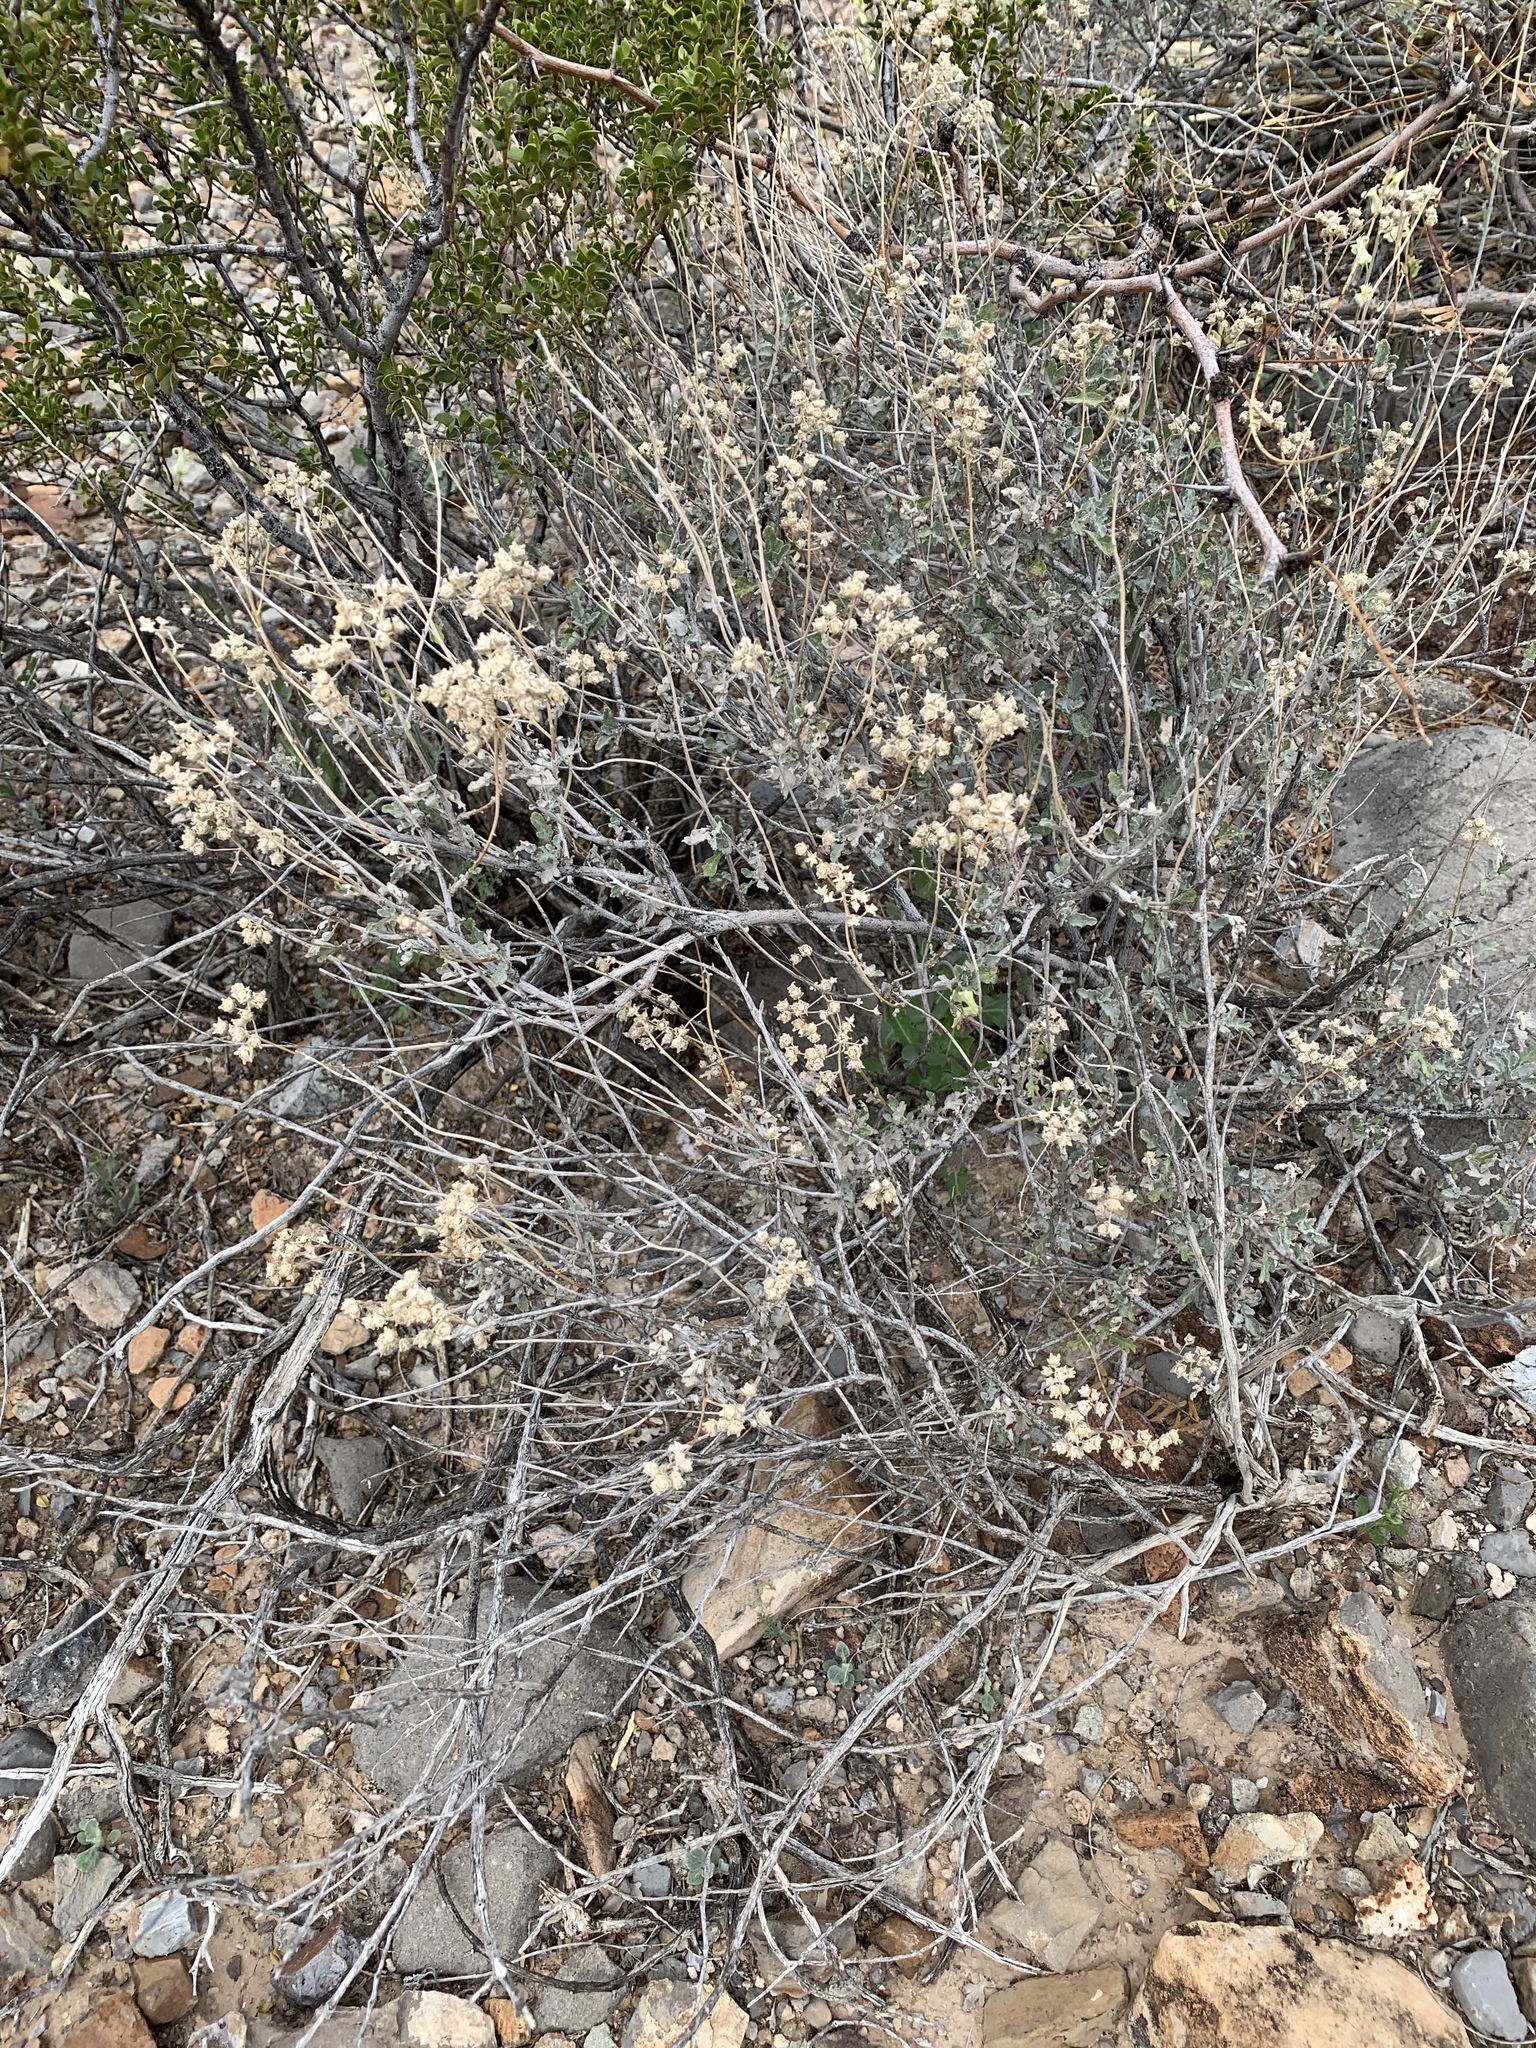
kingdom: Plantae
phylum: Tracheophyta
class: Magnoliopsida
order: Asterales
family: Asteraceae
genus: Parthenium
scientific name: Parthenium incanum
